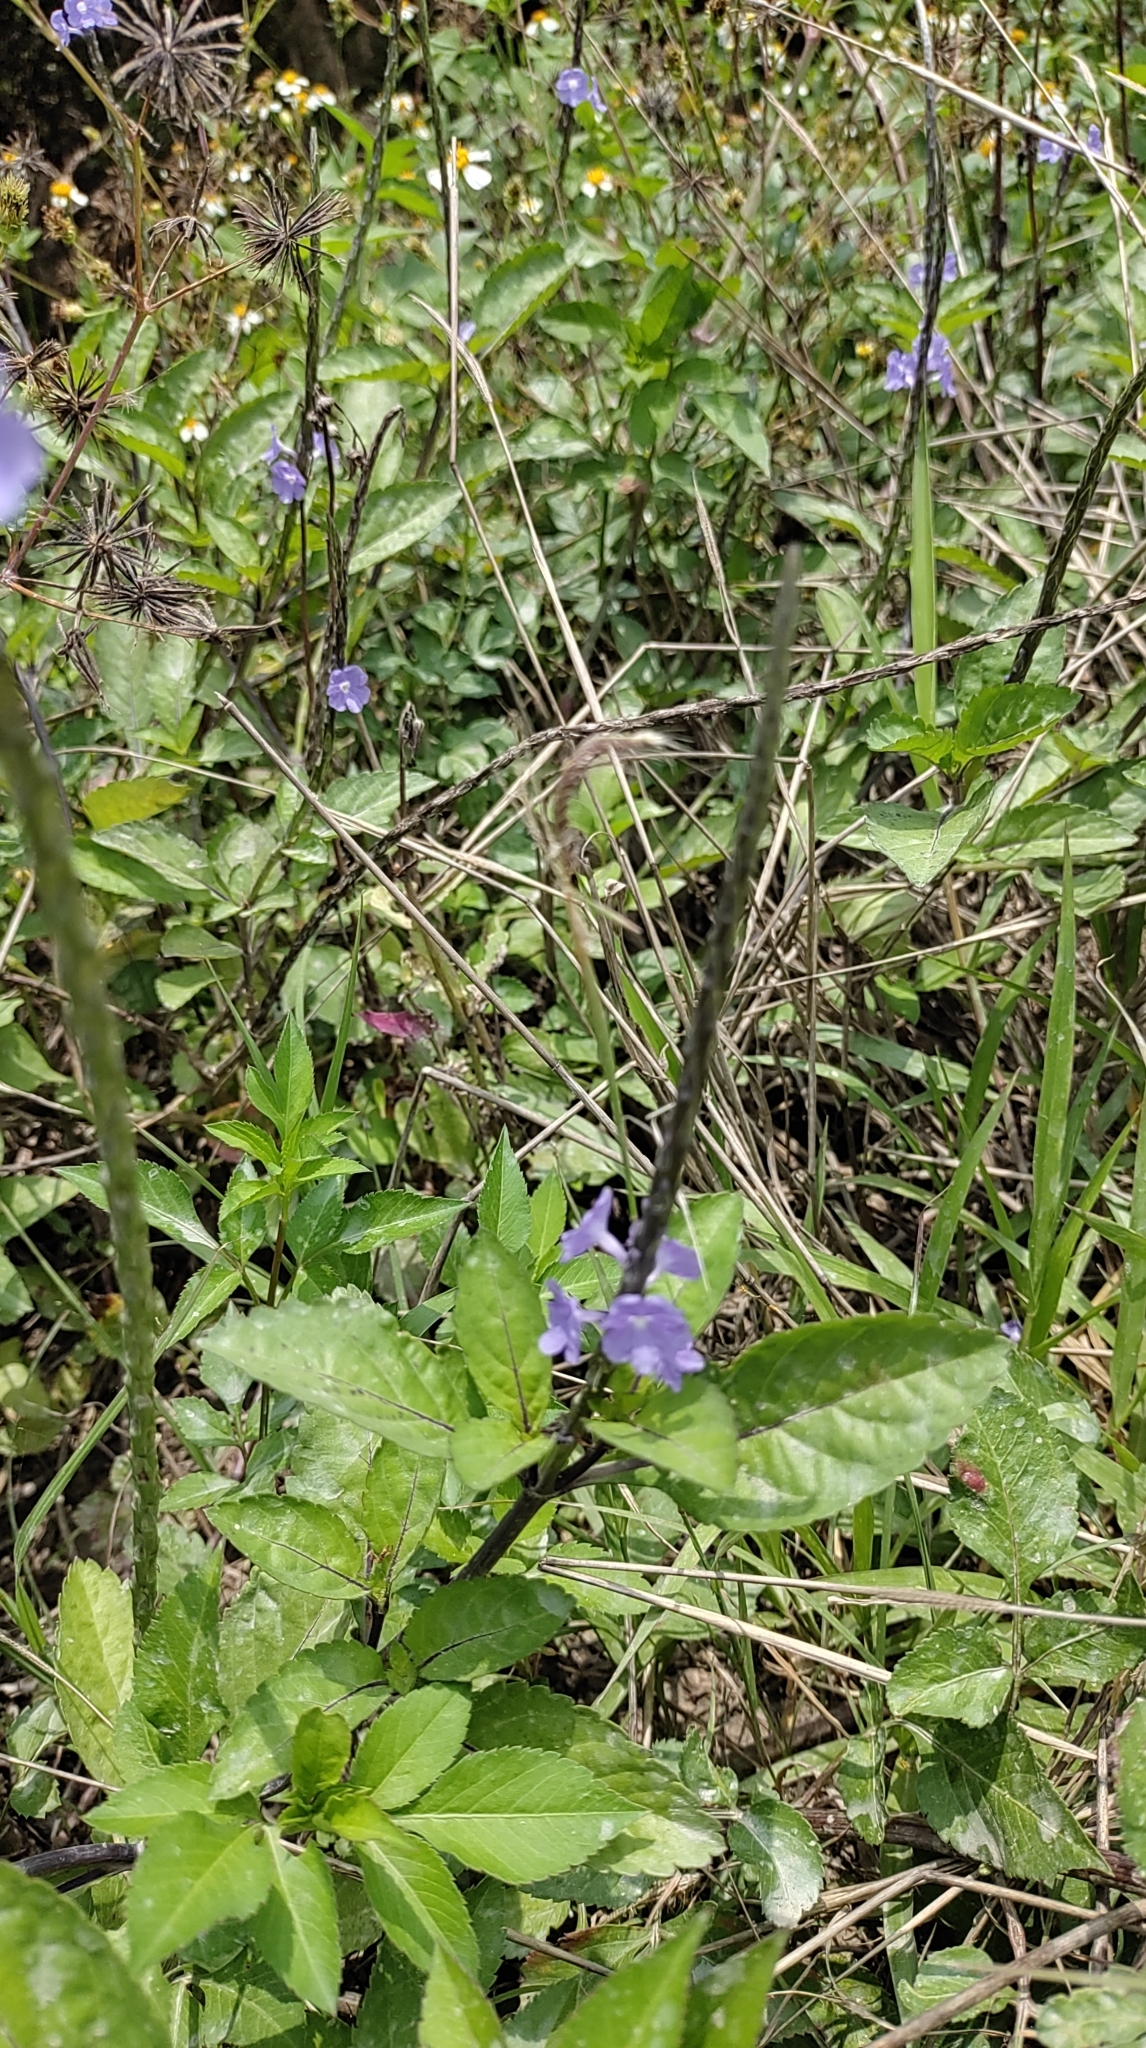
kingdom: Plantae
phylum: Tracheophyta
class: Magnoliopsida
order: Lamiales
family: Verbenaceae
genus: Stachytarpheta
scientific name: Stachytarpheta jamaicensis
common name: Light-blue snakeweed
